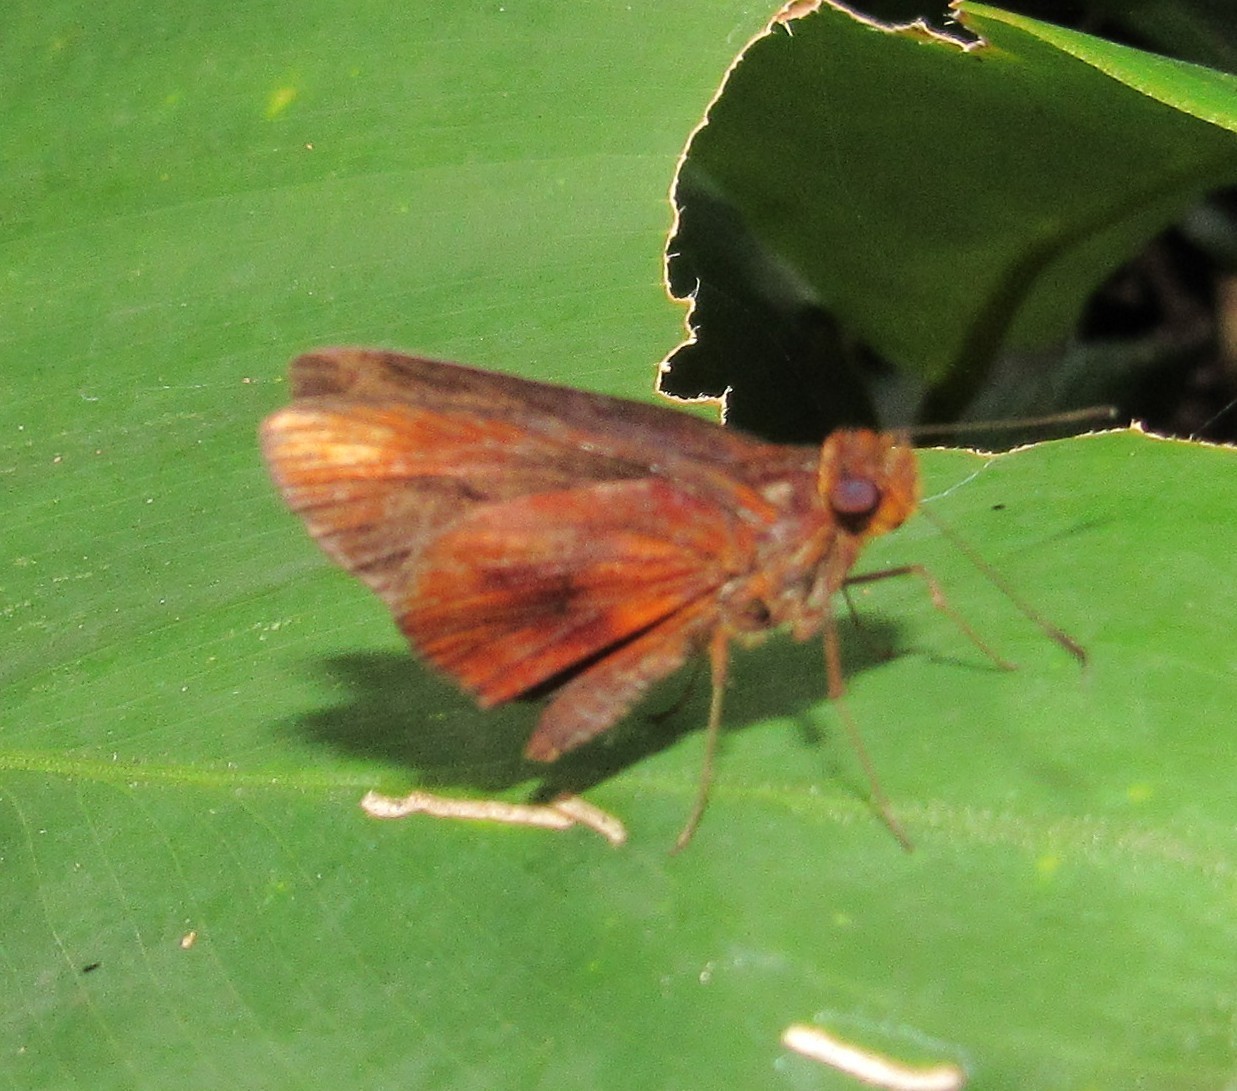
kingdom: Animalia
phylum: Arthropoda
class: Insecta
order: Lepidoptera
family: Hesperiidae
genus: Miltomiges
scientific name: Miltomiges cinnamomea
